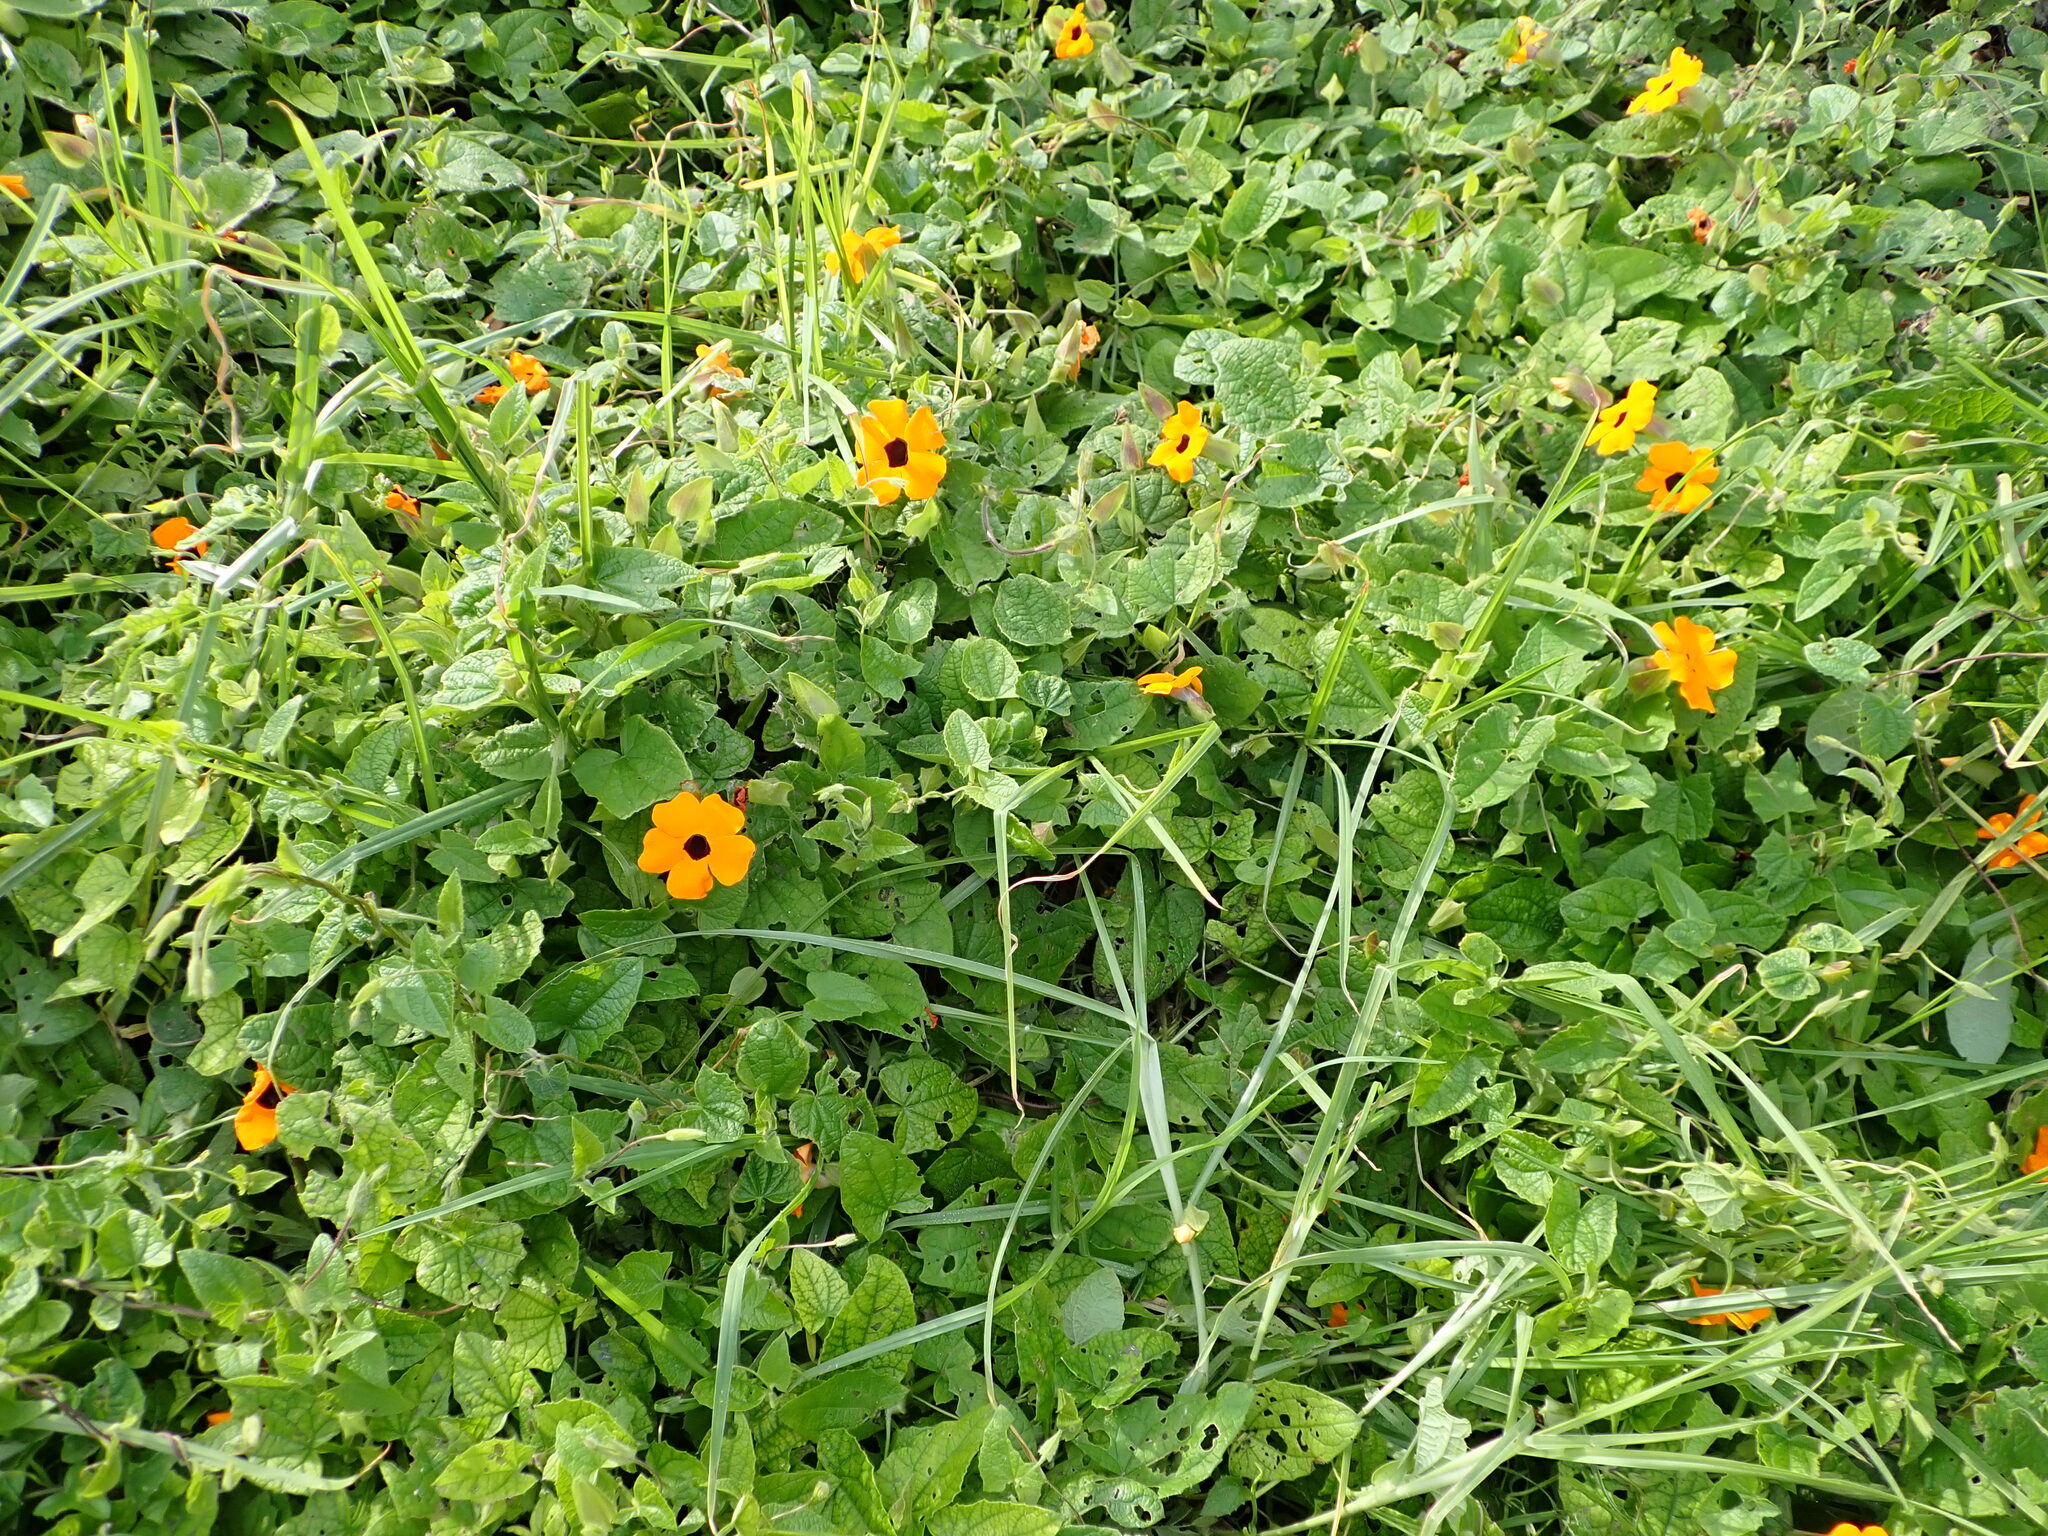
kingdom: Plantae
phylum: Tracheophyta
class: Magnoliopsida
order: Lamiales
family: Acanthaceae
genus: Thunbergia
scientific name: Thunbergia alata
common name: Blackeyed susan vine
